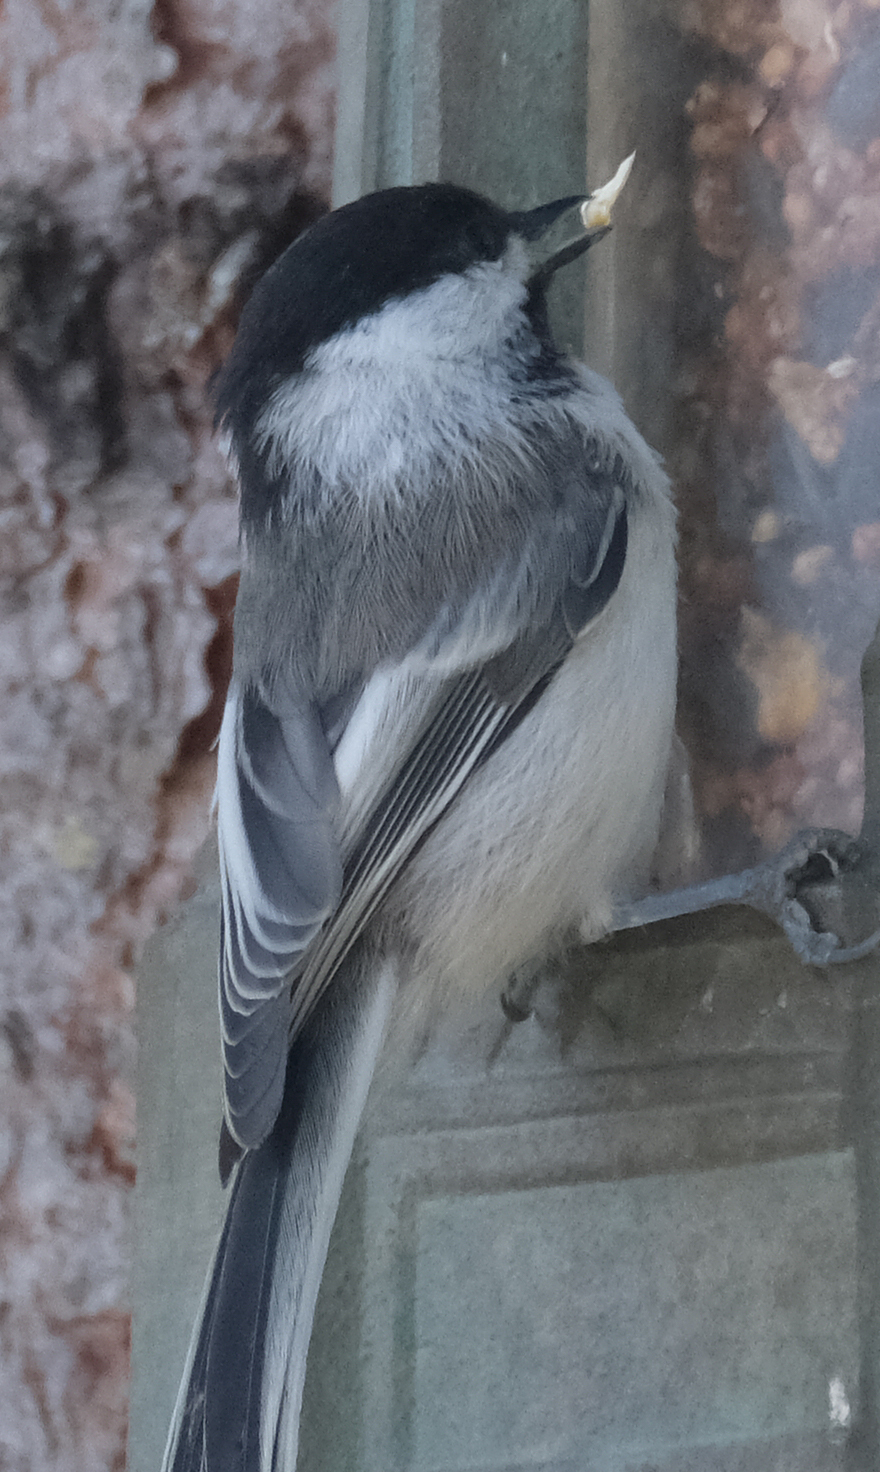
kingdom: Animalia
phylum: Chordata
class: Aves
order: Passeriformes
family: Paridae
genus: Poecile
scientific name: Poecile atricapillus
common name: Black-capped chickadee
